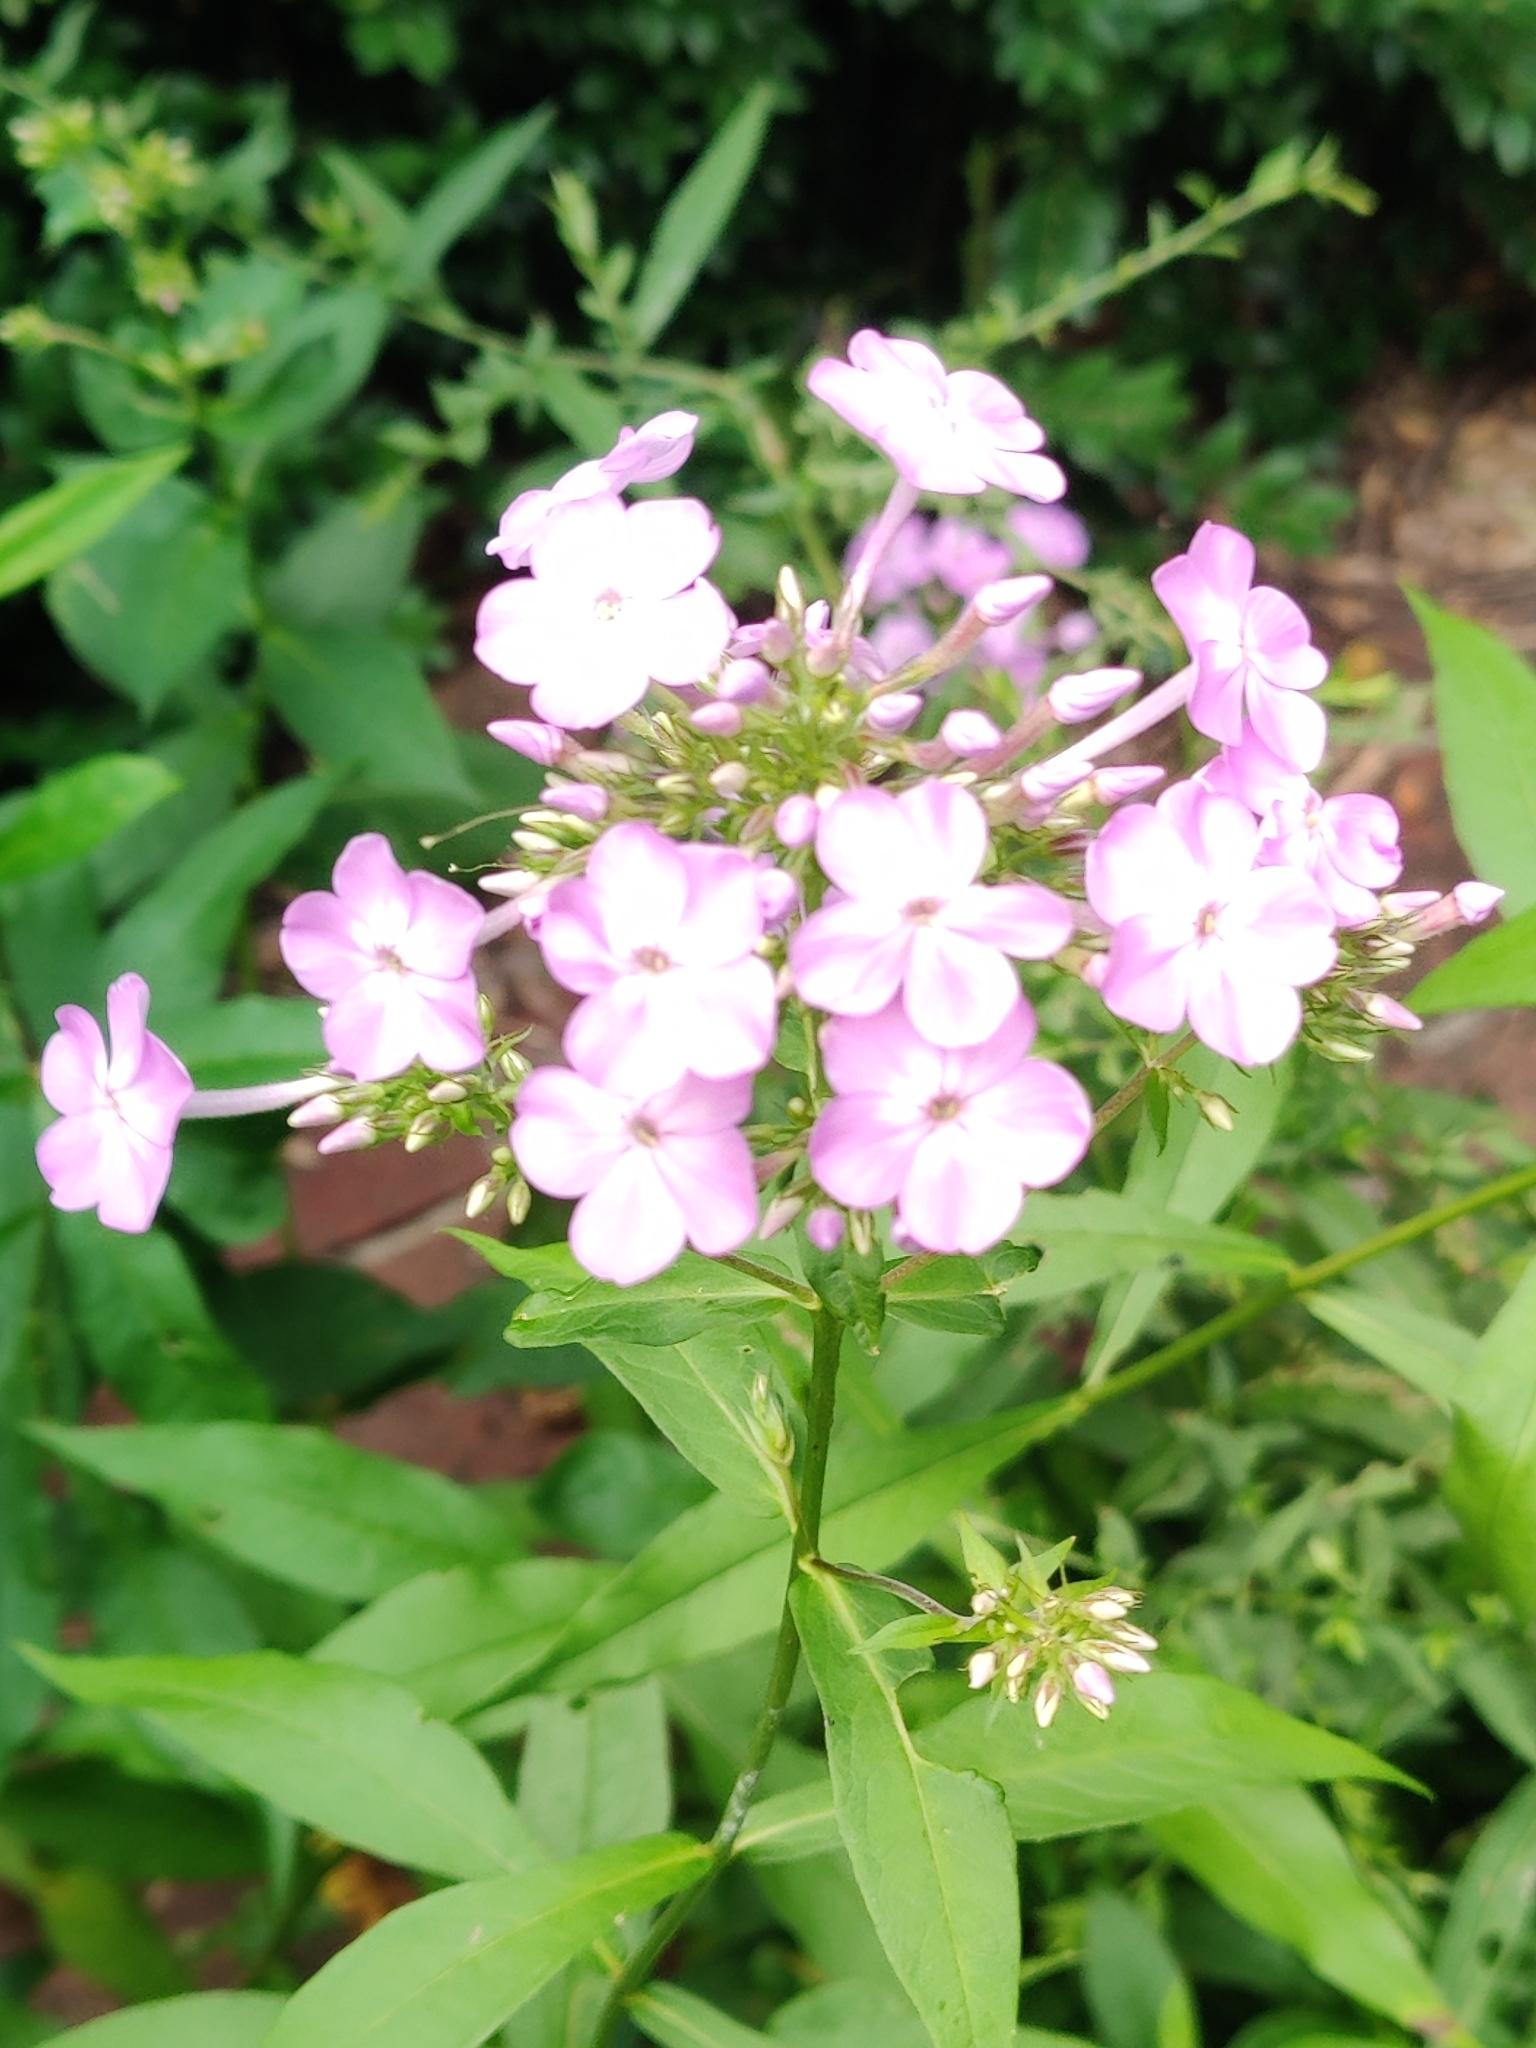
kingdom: Plantae
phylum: Tracheophyta
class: Magnoliopsida
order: Ericales
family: Polemoniaceae
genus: Phlox
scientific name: Phlox paniculata
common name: Fall phlox
